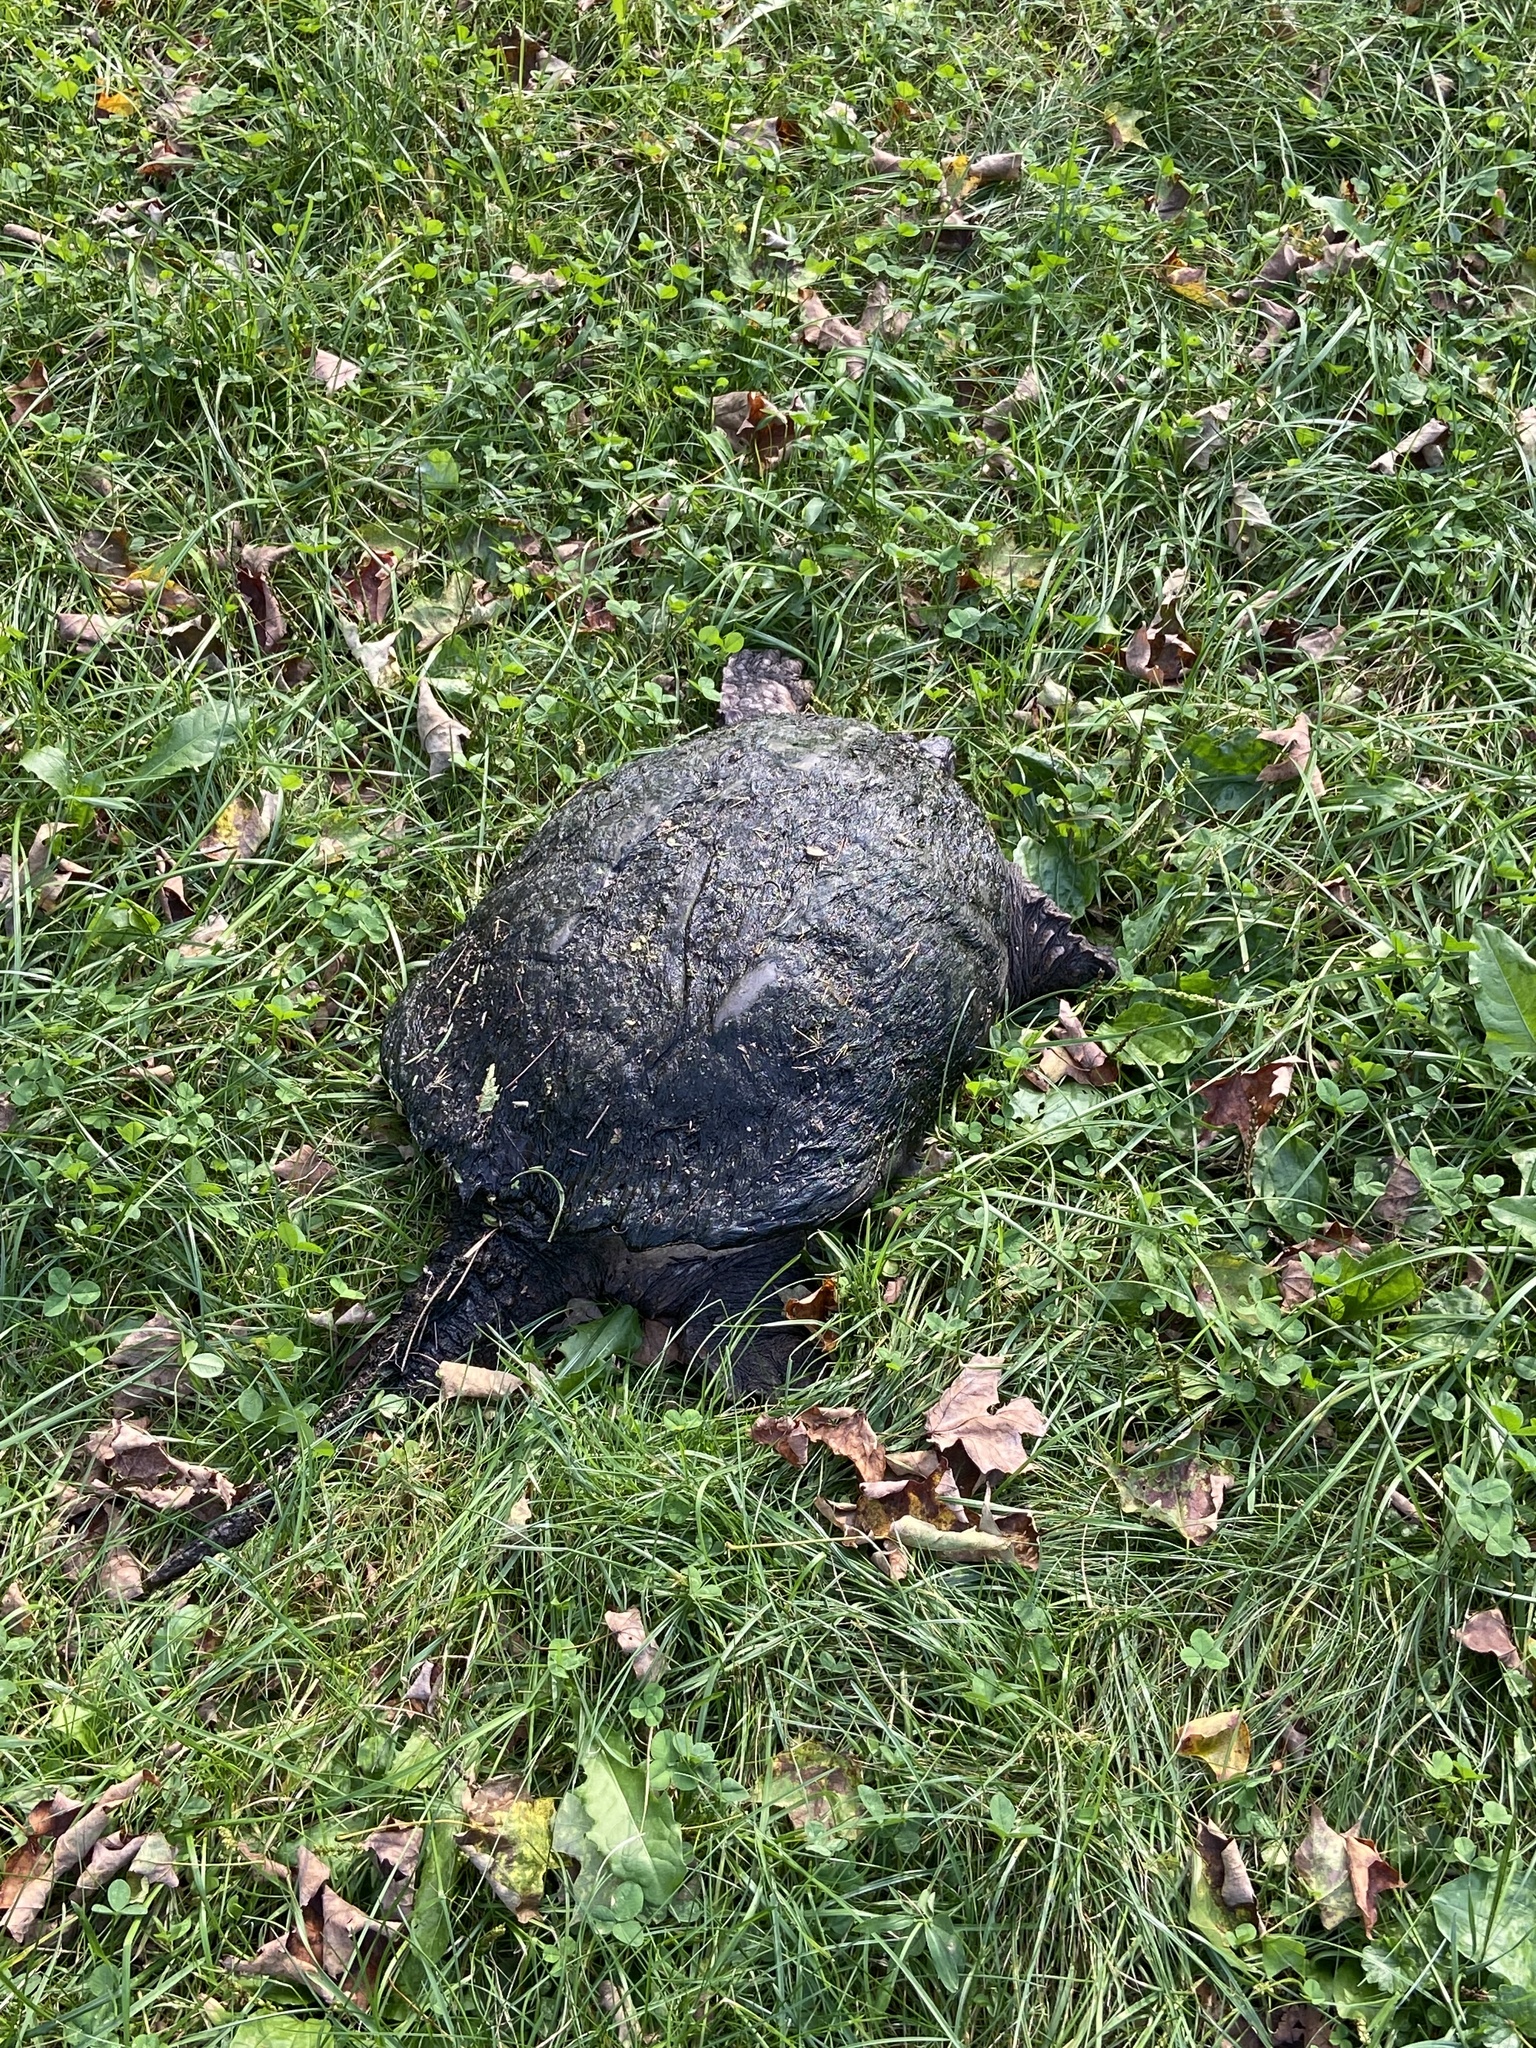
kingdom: Animalia
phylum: Chordata
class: Testudines
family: Chelydridae
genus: Chelydra
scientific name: Chelydra serpentina
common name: Common snapping turtle
